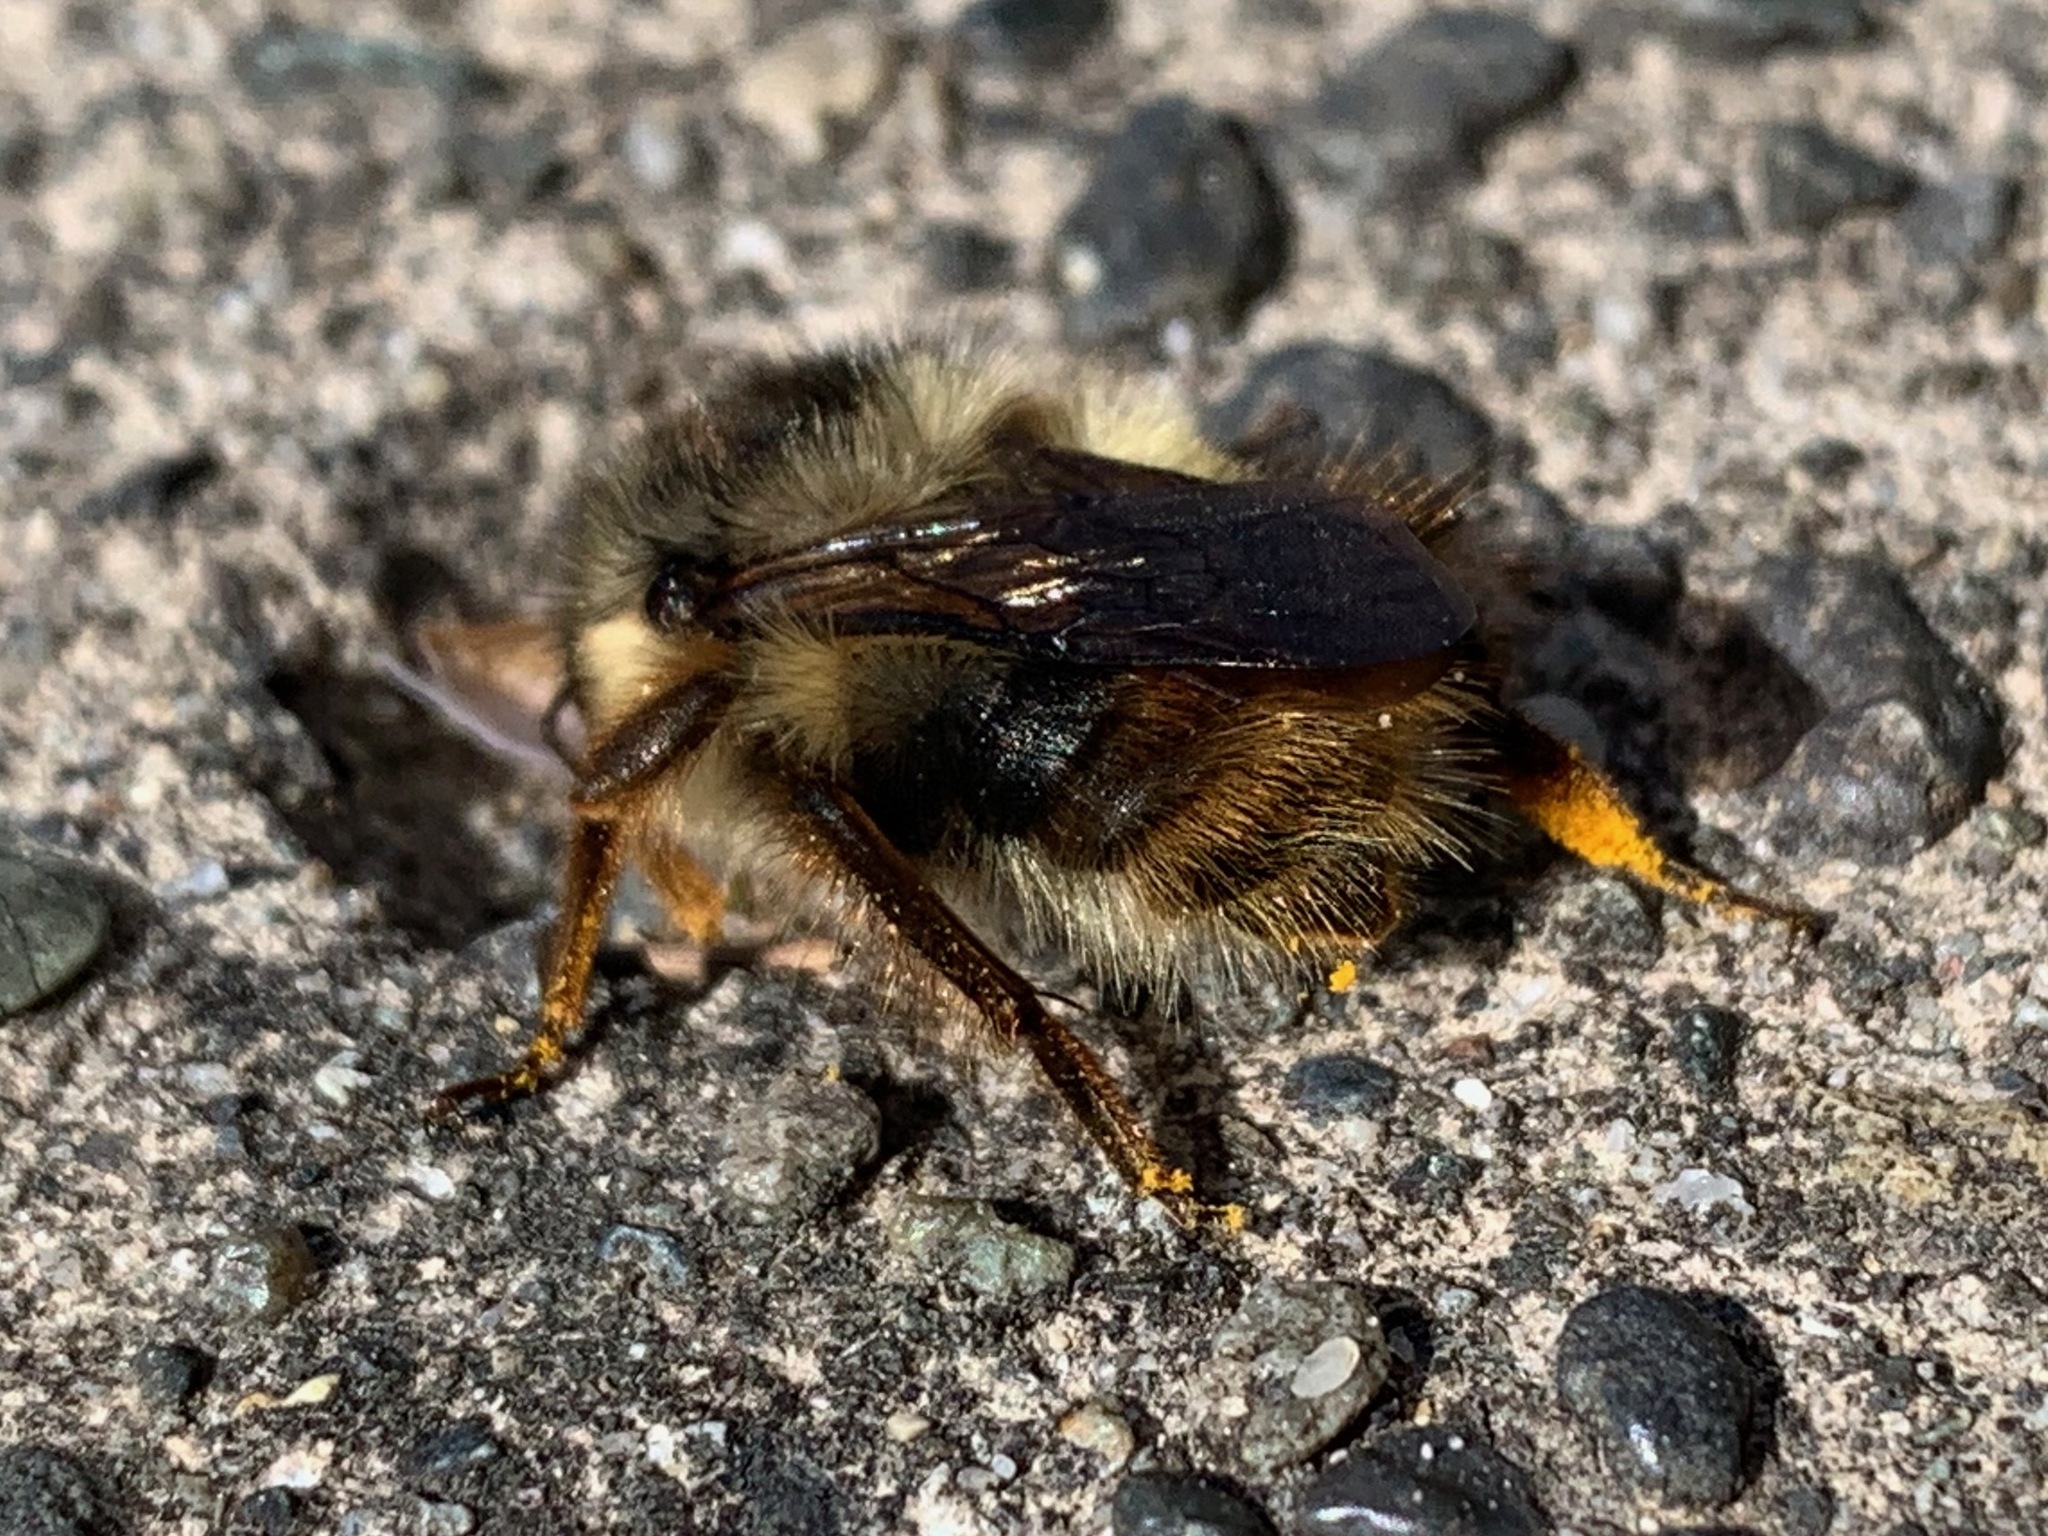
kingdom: Animalia
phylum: Arthropoda
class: Insecta
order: Hymenoptera
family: Apidae
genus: Bombus
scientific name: Bombus mixtus
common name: Fuzzy-horned bumble bee
